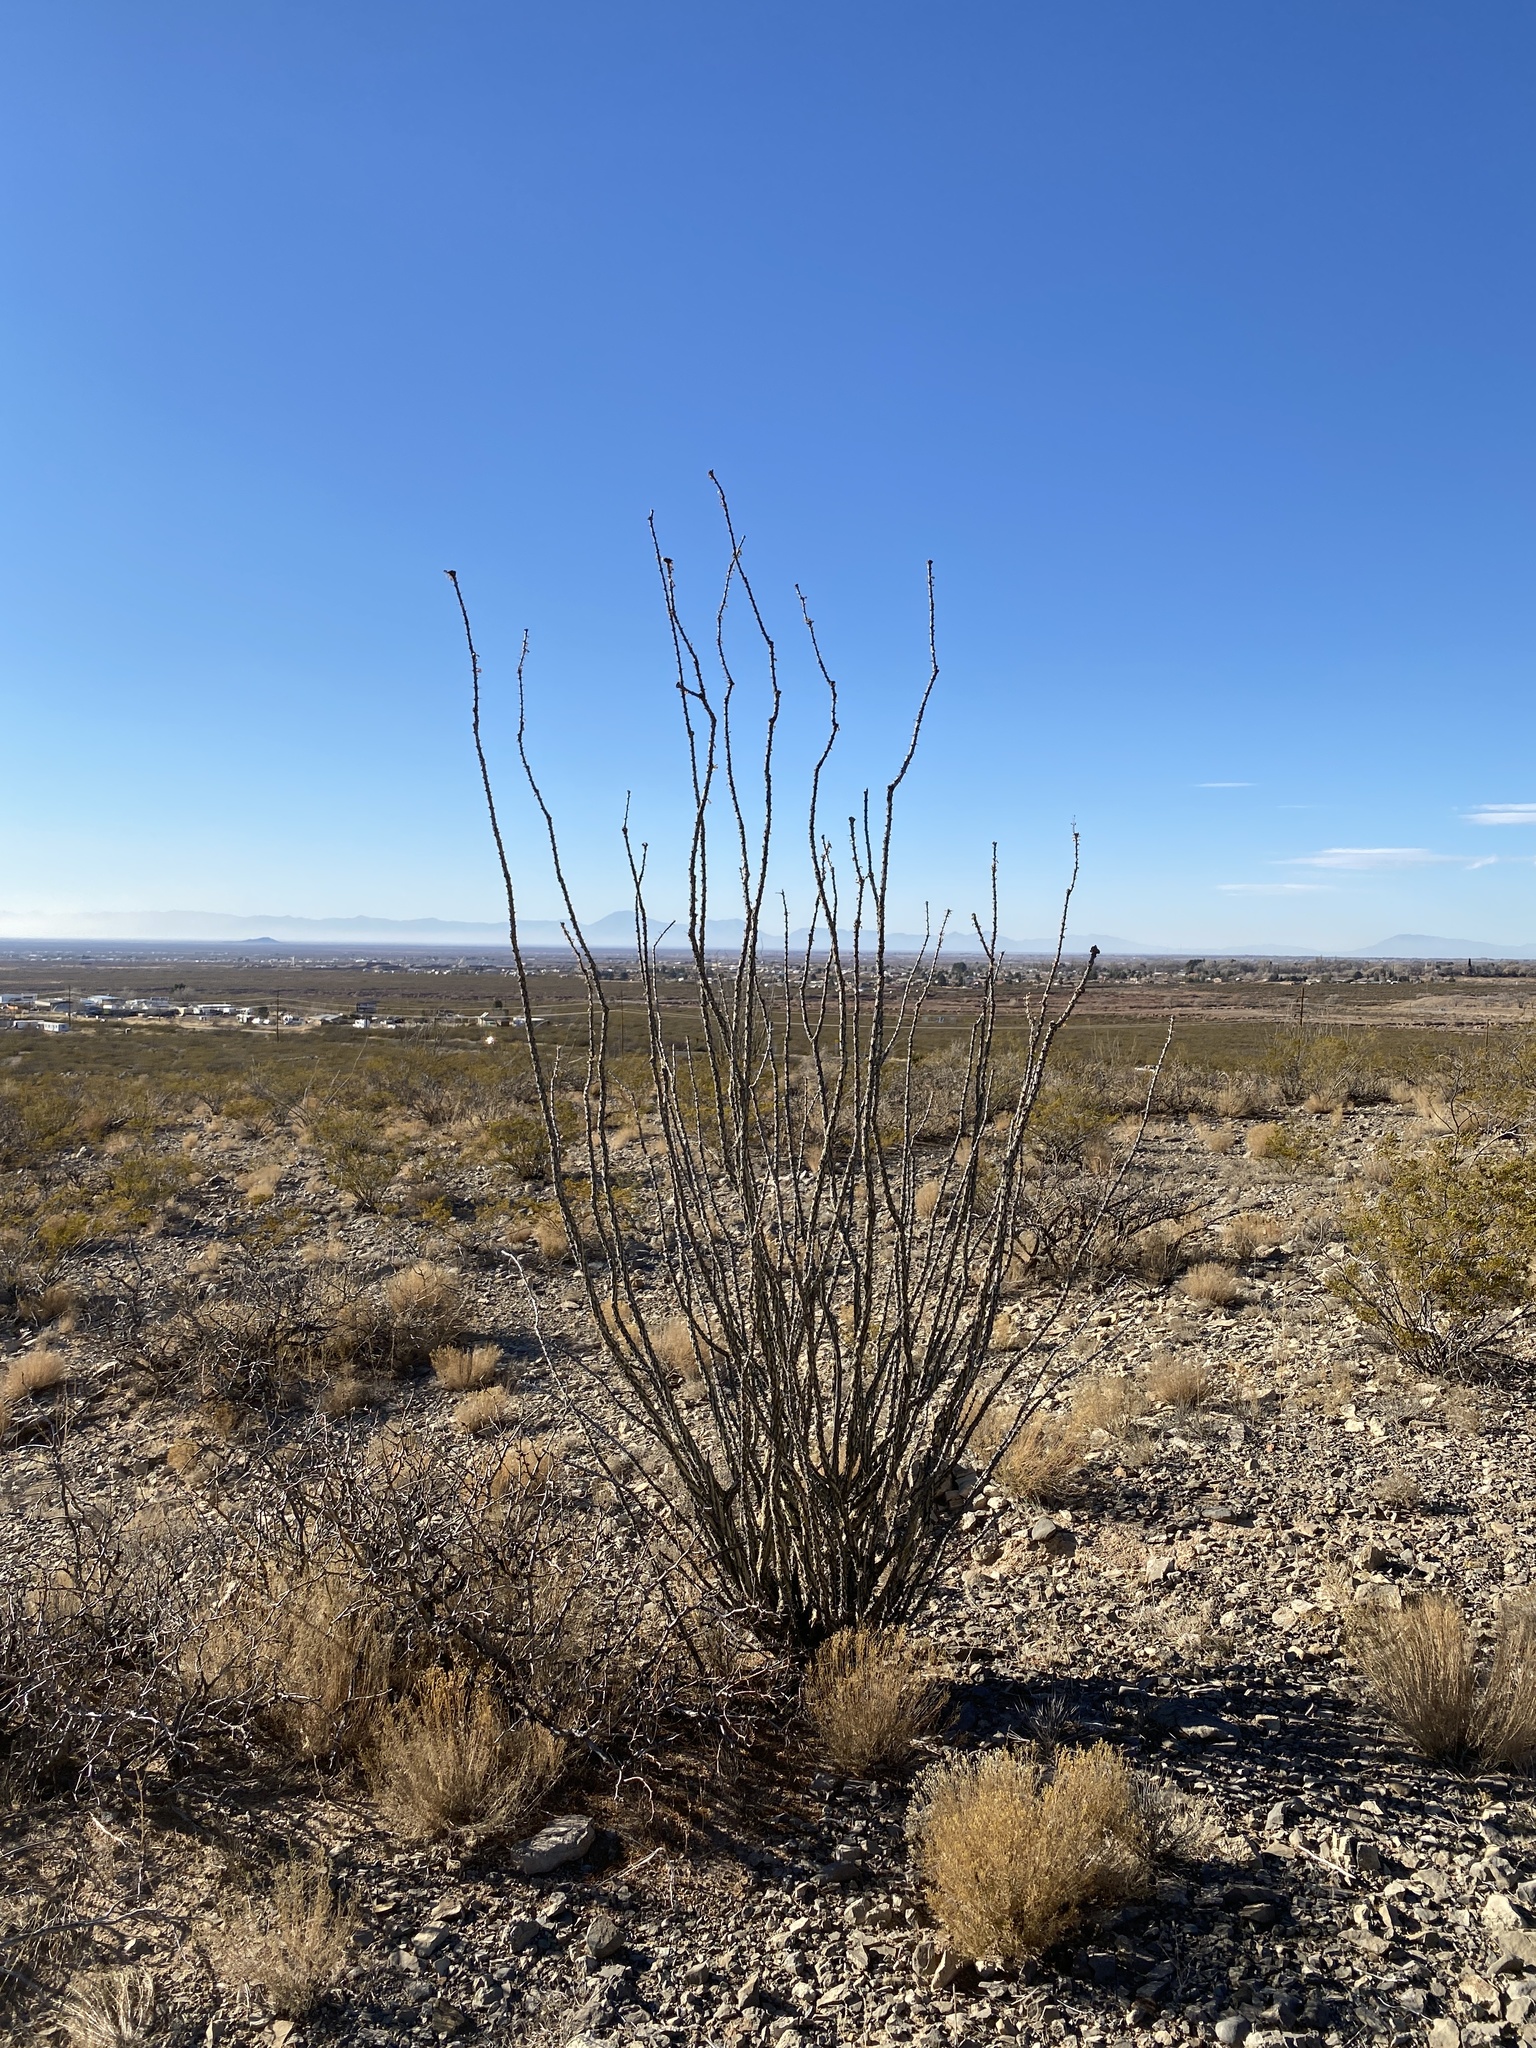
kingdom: Plantae
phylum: Tracheophyta
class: Magnoliopsida
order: Ericales
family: Fouquieriaceae
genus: Fouquieria
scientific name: Fouquieria splendens
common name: Vine-cactus
